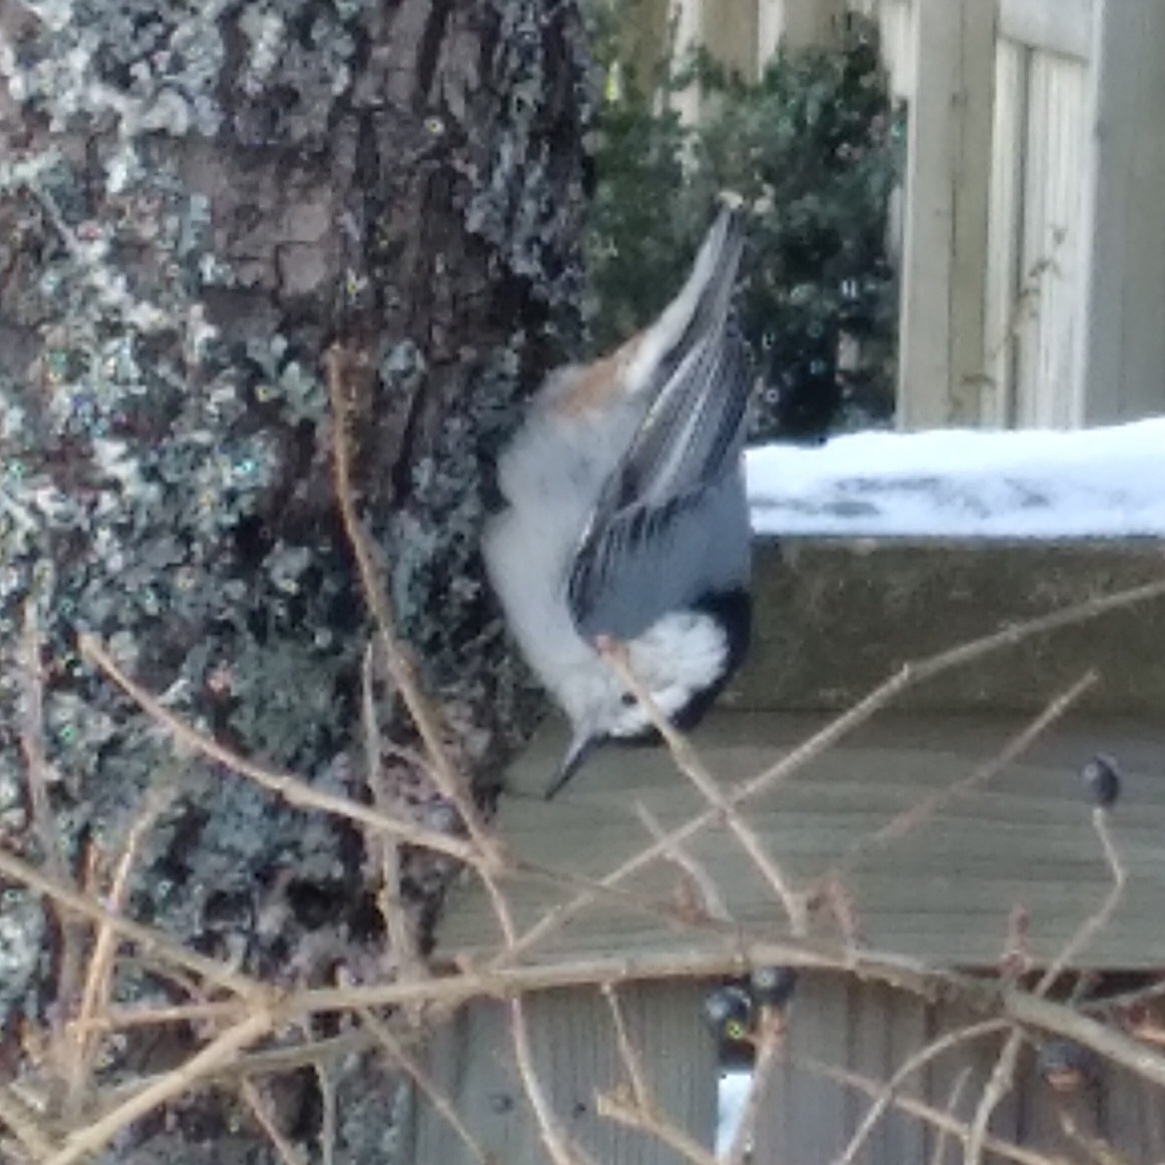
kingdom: Animalia
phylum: Chordata
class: Aves
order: Passeriformes
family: Sittidae
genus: Sitta
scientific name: Sitta carolinensis
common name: White-breasted nuthatch
